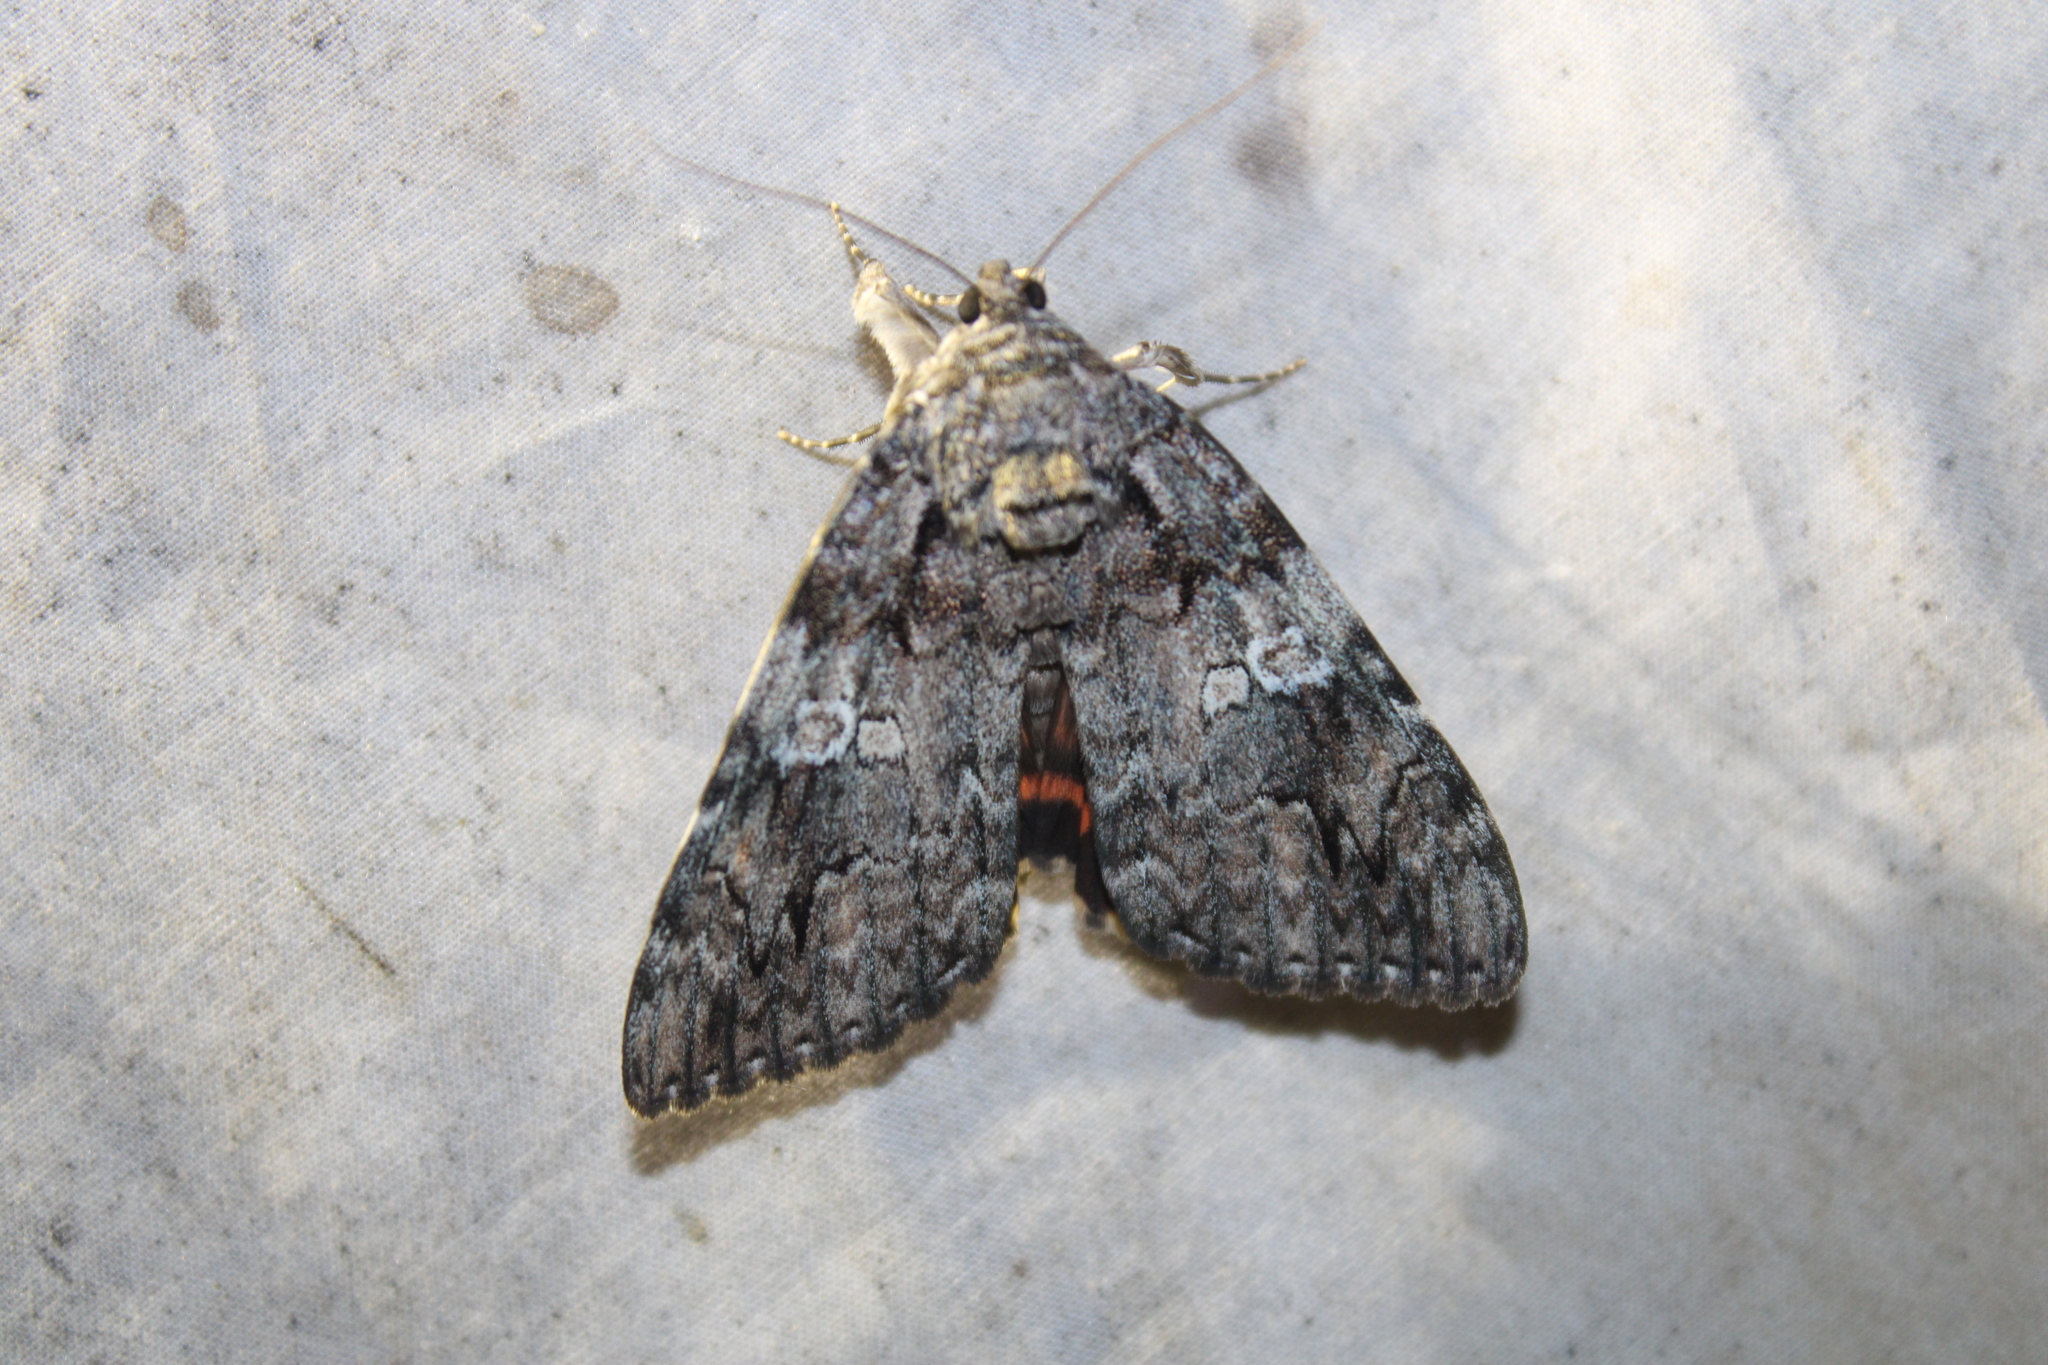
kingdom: Animalia
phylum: Arthropoda
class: Insecta
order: Lepidoptera
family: Erebidae
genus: Catocala
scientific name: Catocala ilia
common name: Ilia underwing
